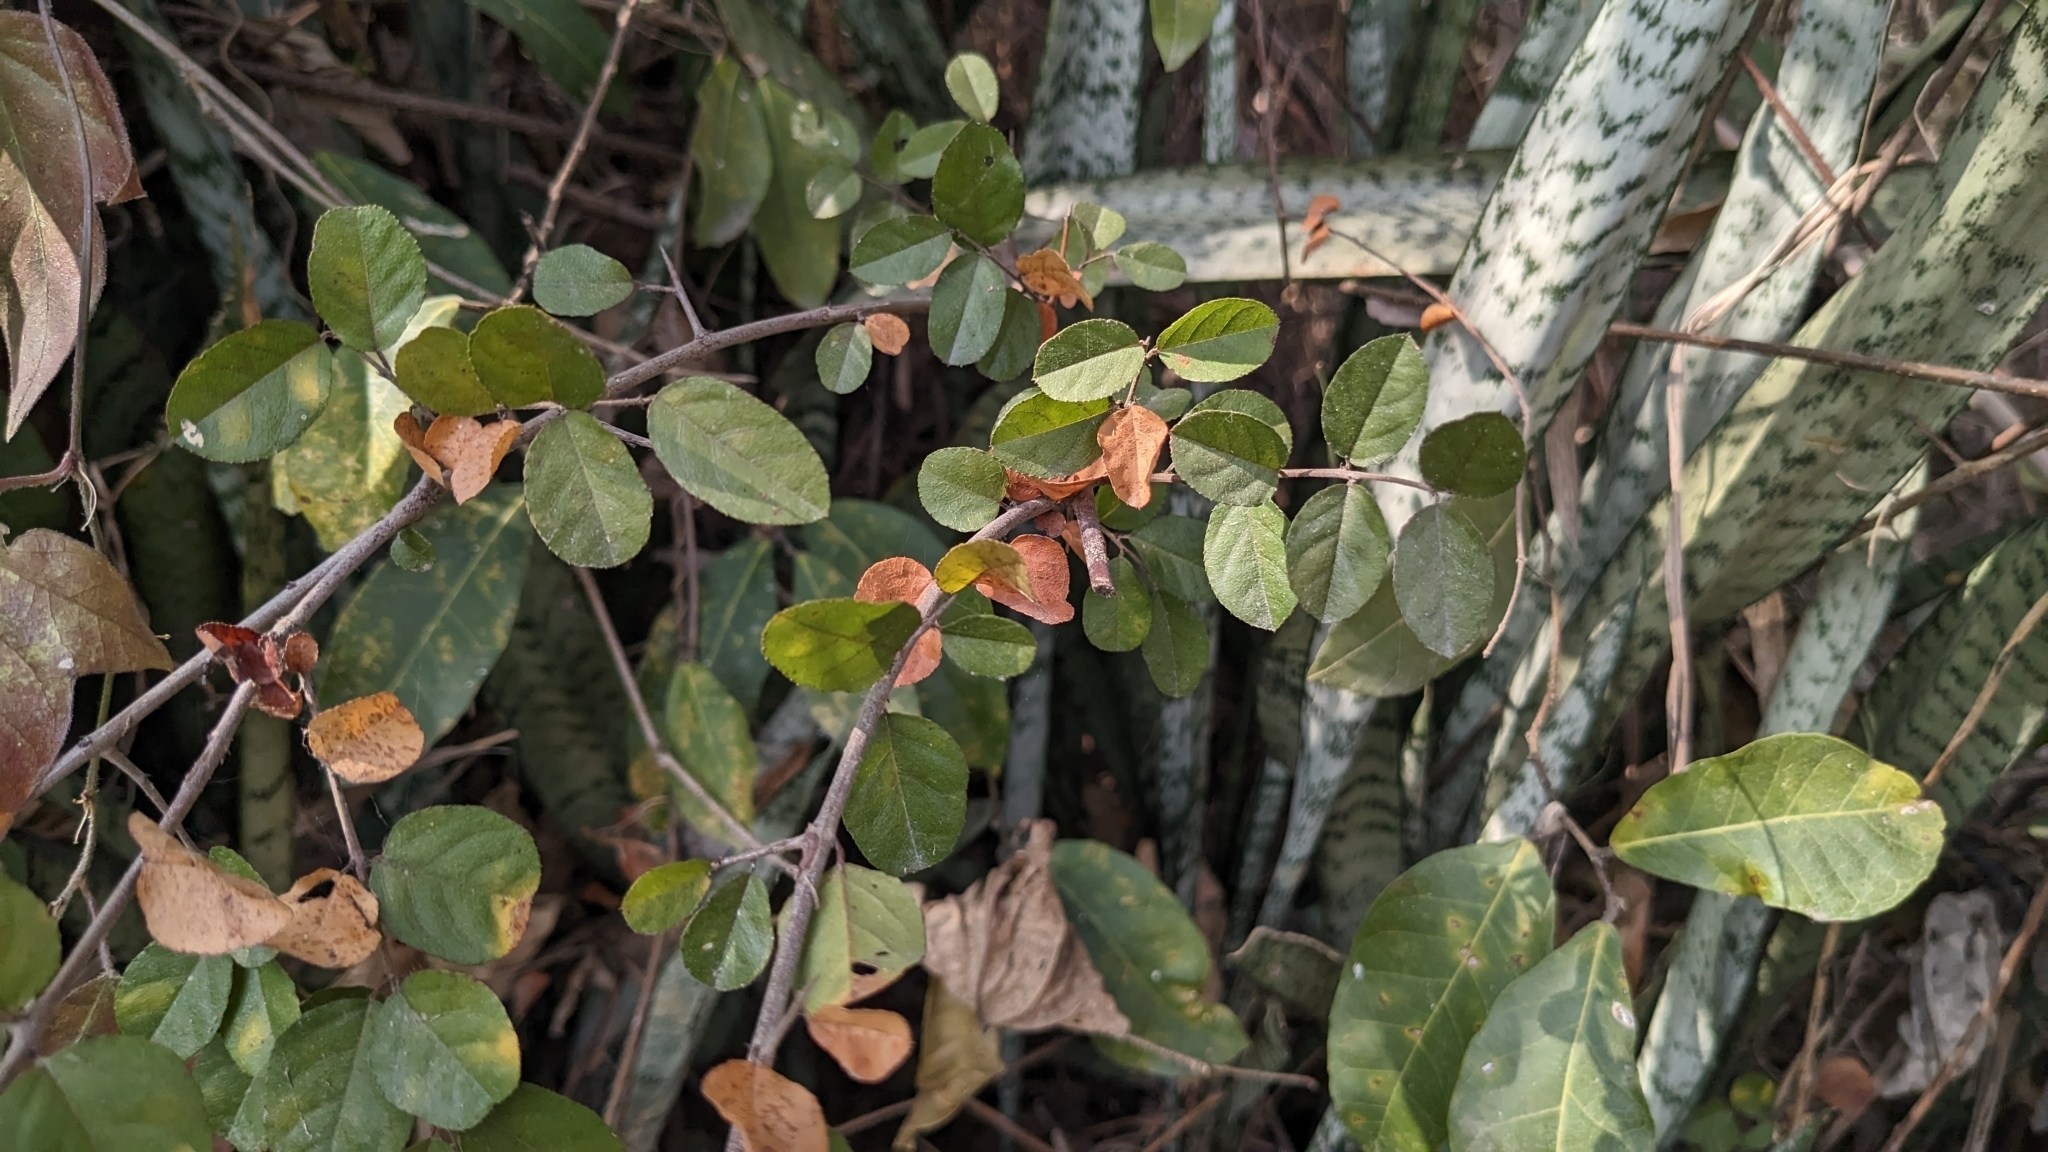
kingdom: Plantae
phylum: Tracheophyta
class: Magnoliopsida
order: Rosales
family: Rhamnaceae
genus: Sageretia
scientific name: Sageretia thea
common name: Pauper's-tea
